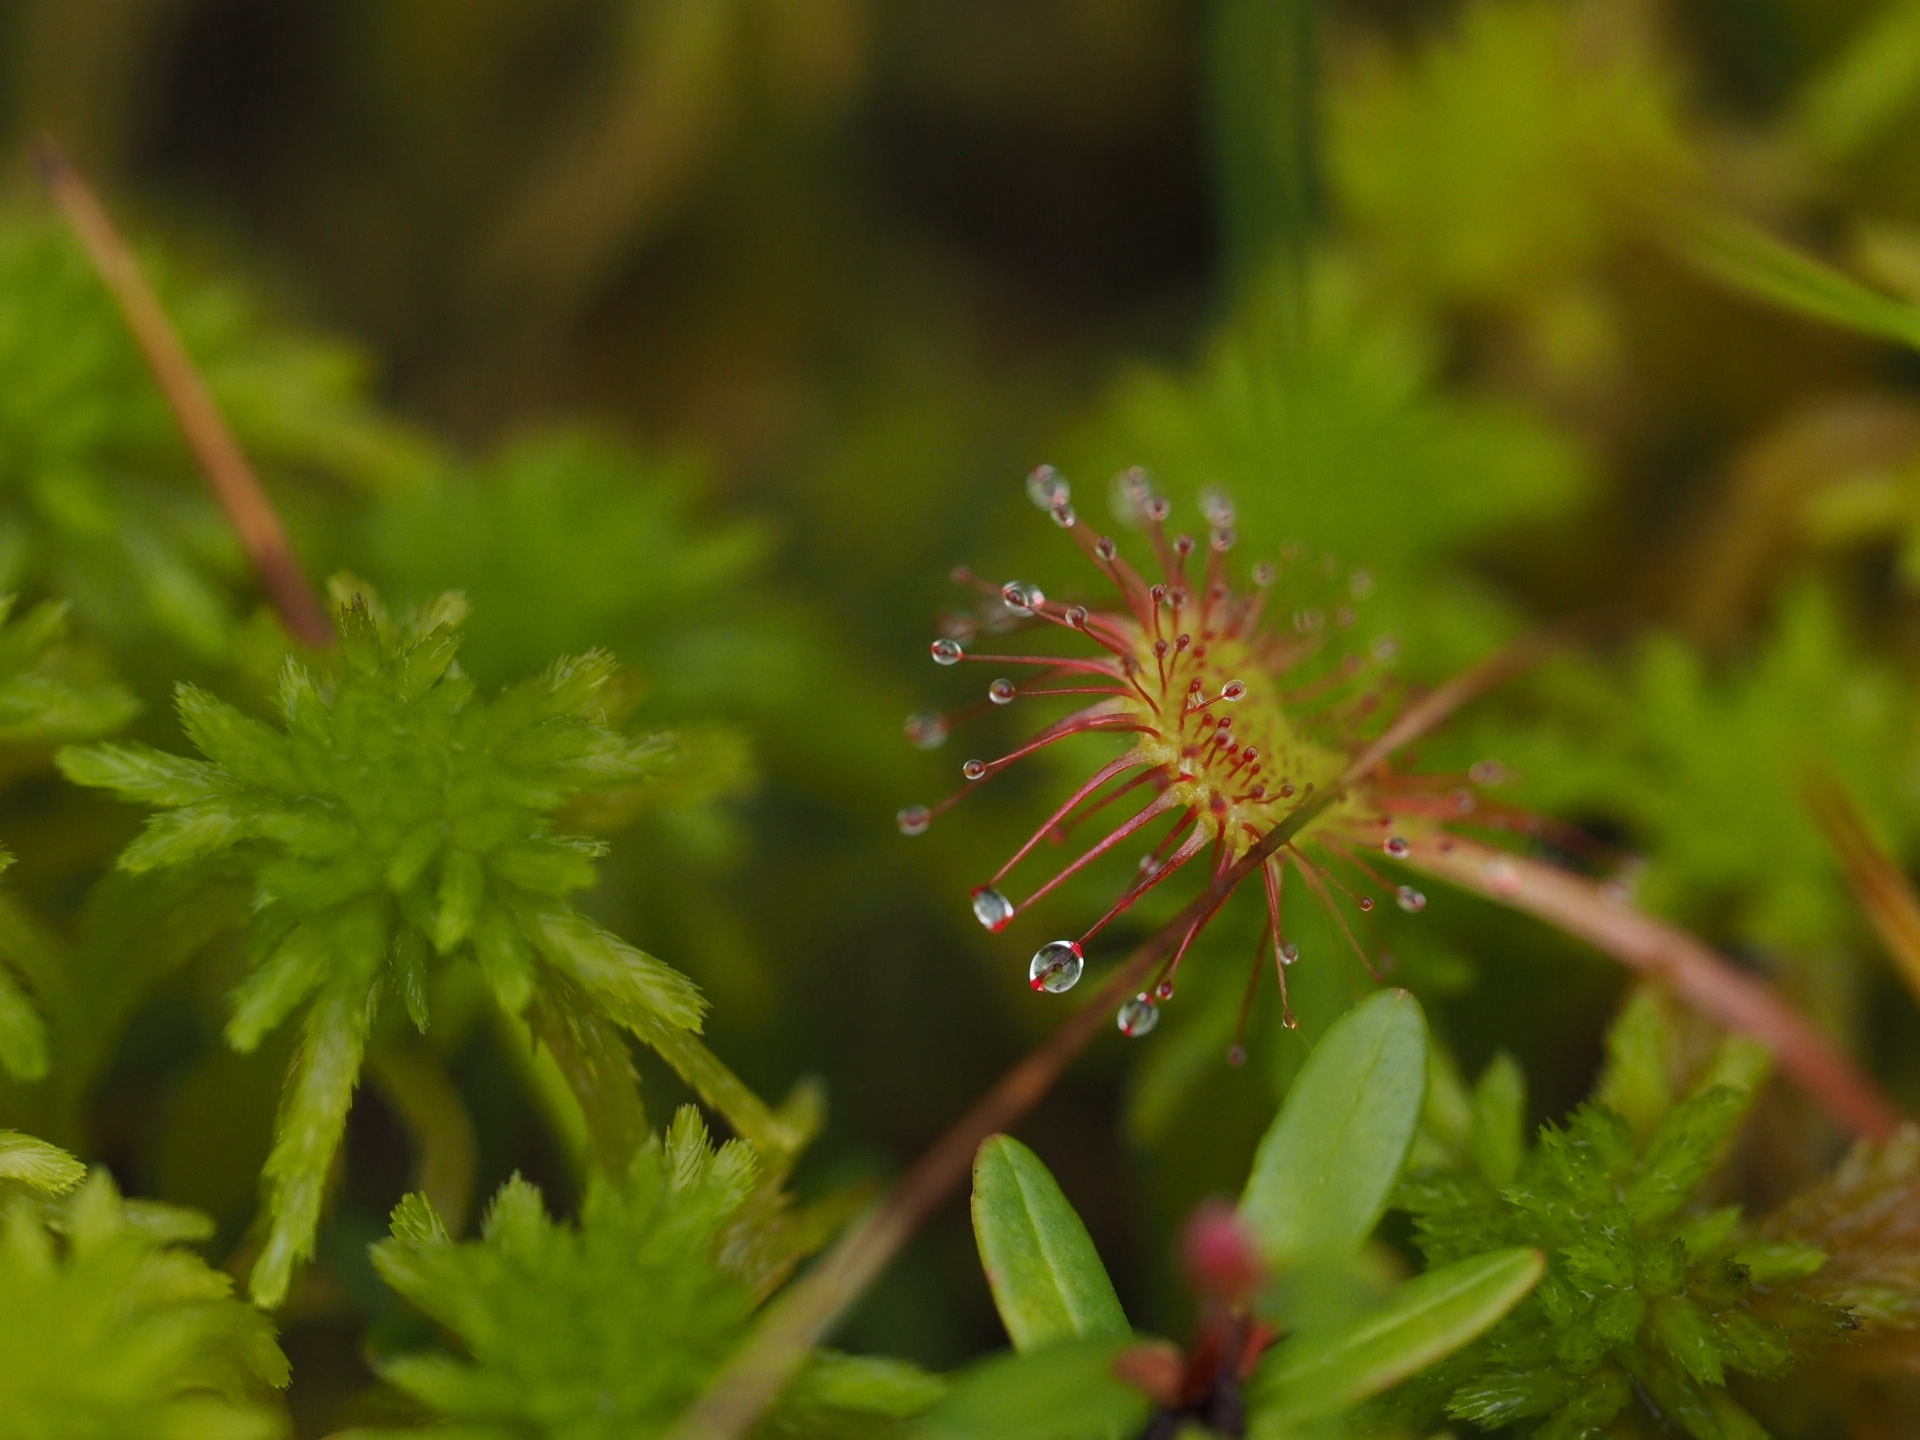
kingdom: Plantae
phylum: Tracheophyta
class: Magnoliopsida
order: Caryophyllales
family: Droseraceae
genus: Drosera
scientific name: Drosera rotundifolia
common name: Round-leaved sundew
